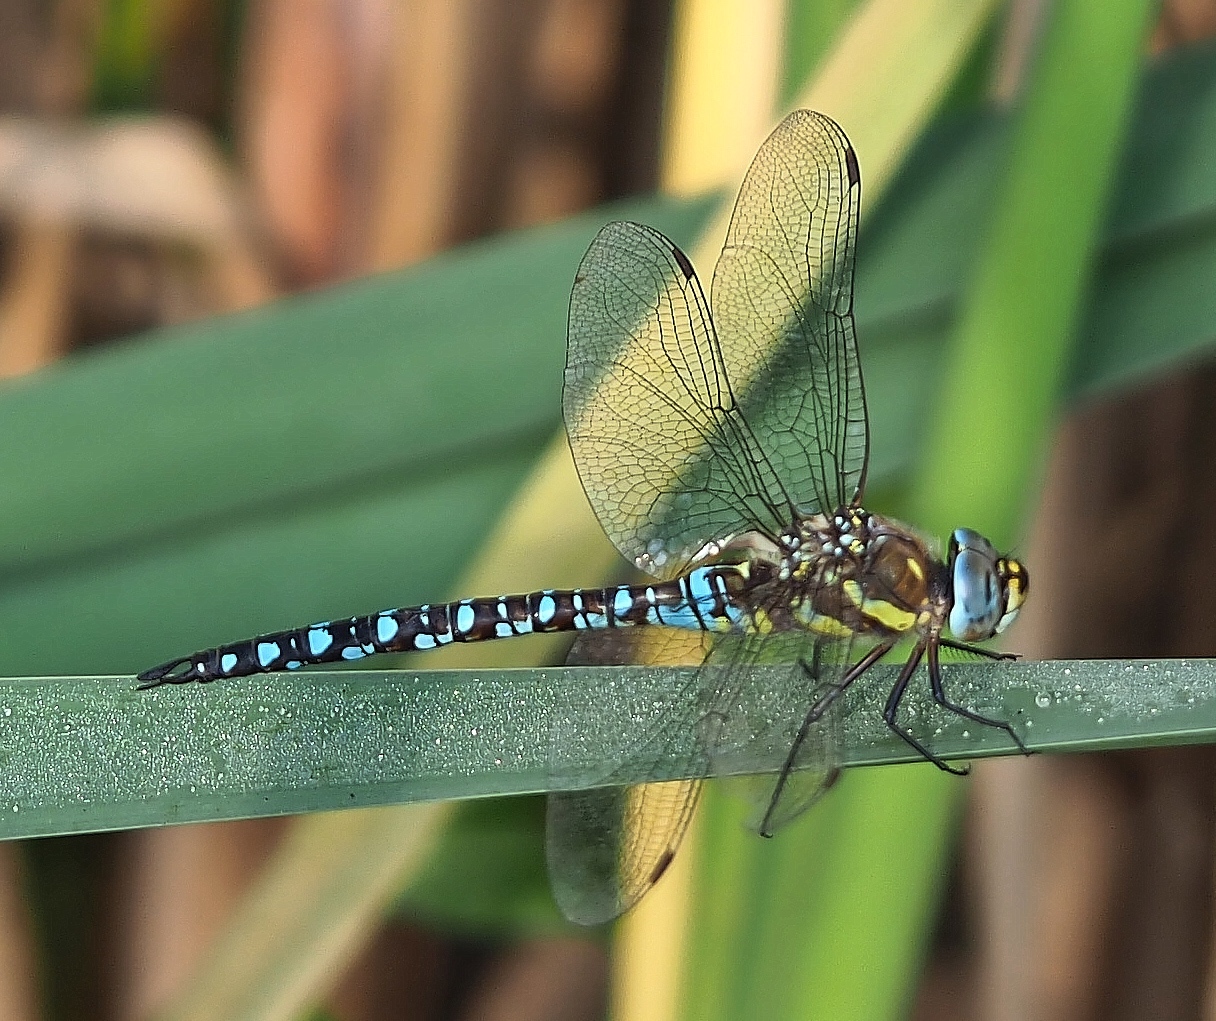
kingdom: Animalia
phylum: Arthropoda
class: Insecta
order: Odonata
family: Aeshnidae
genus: Aeshna
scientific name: Aeshna mixta
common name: Migrant hawker
